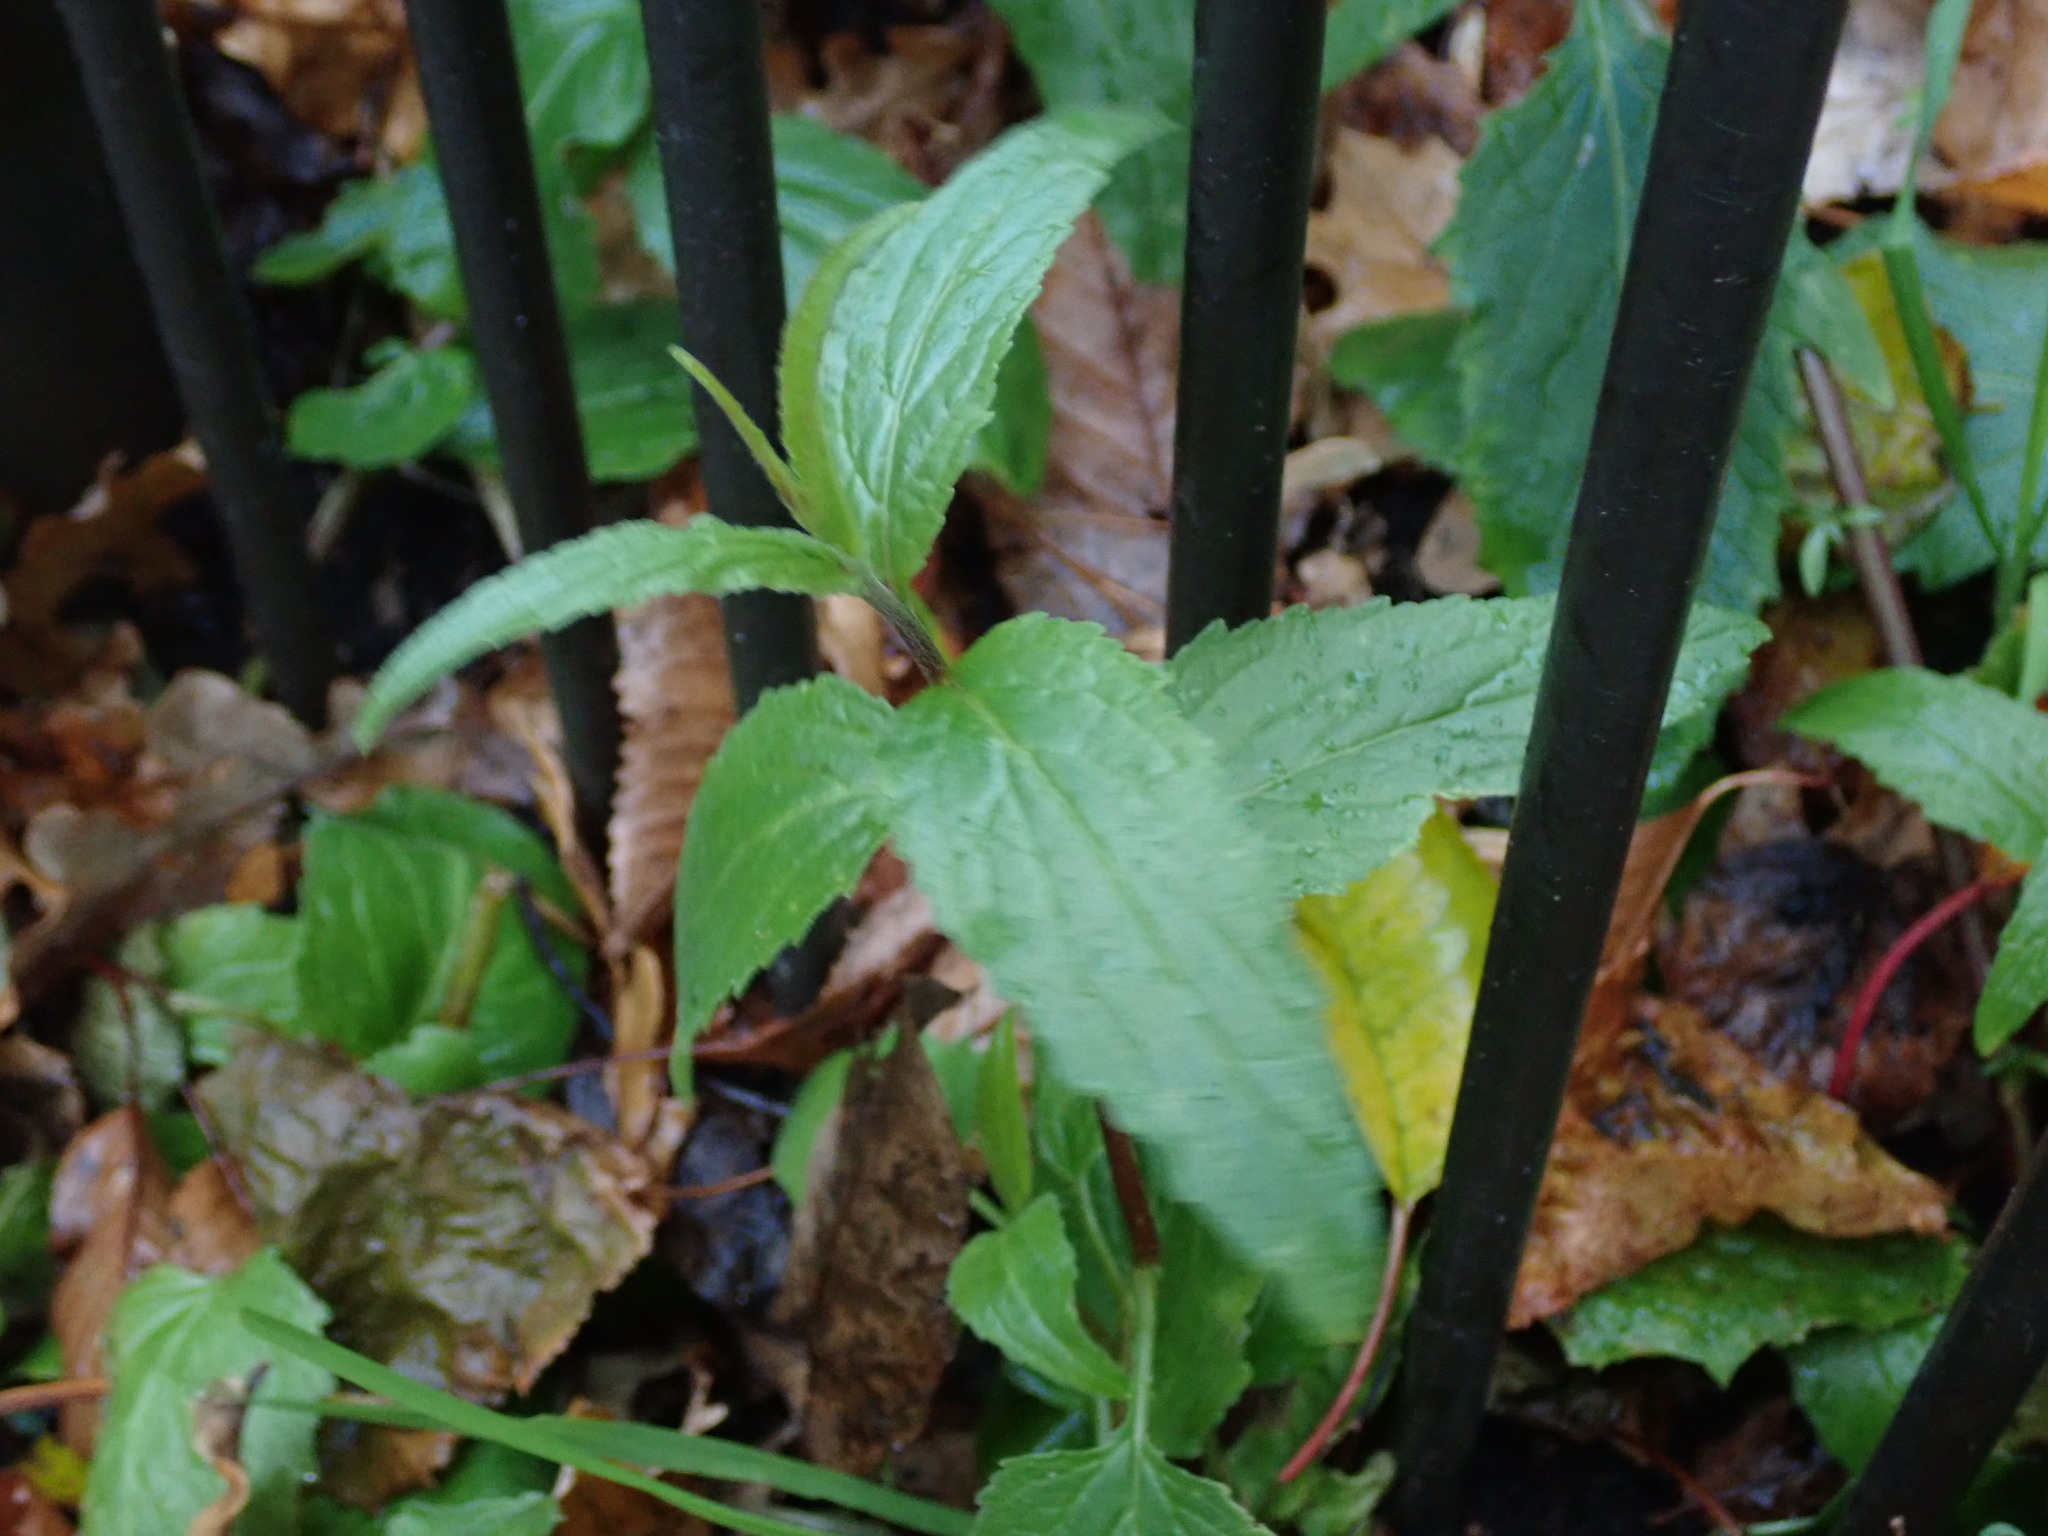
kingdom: Plantae
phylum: Tracheophyta
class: Magnoliopsida
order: Asterales
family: Campanulaceae
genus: Campanula
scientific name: Campanula rapunculoides
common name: Creeping bellflower
